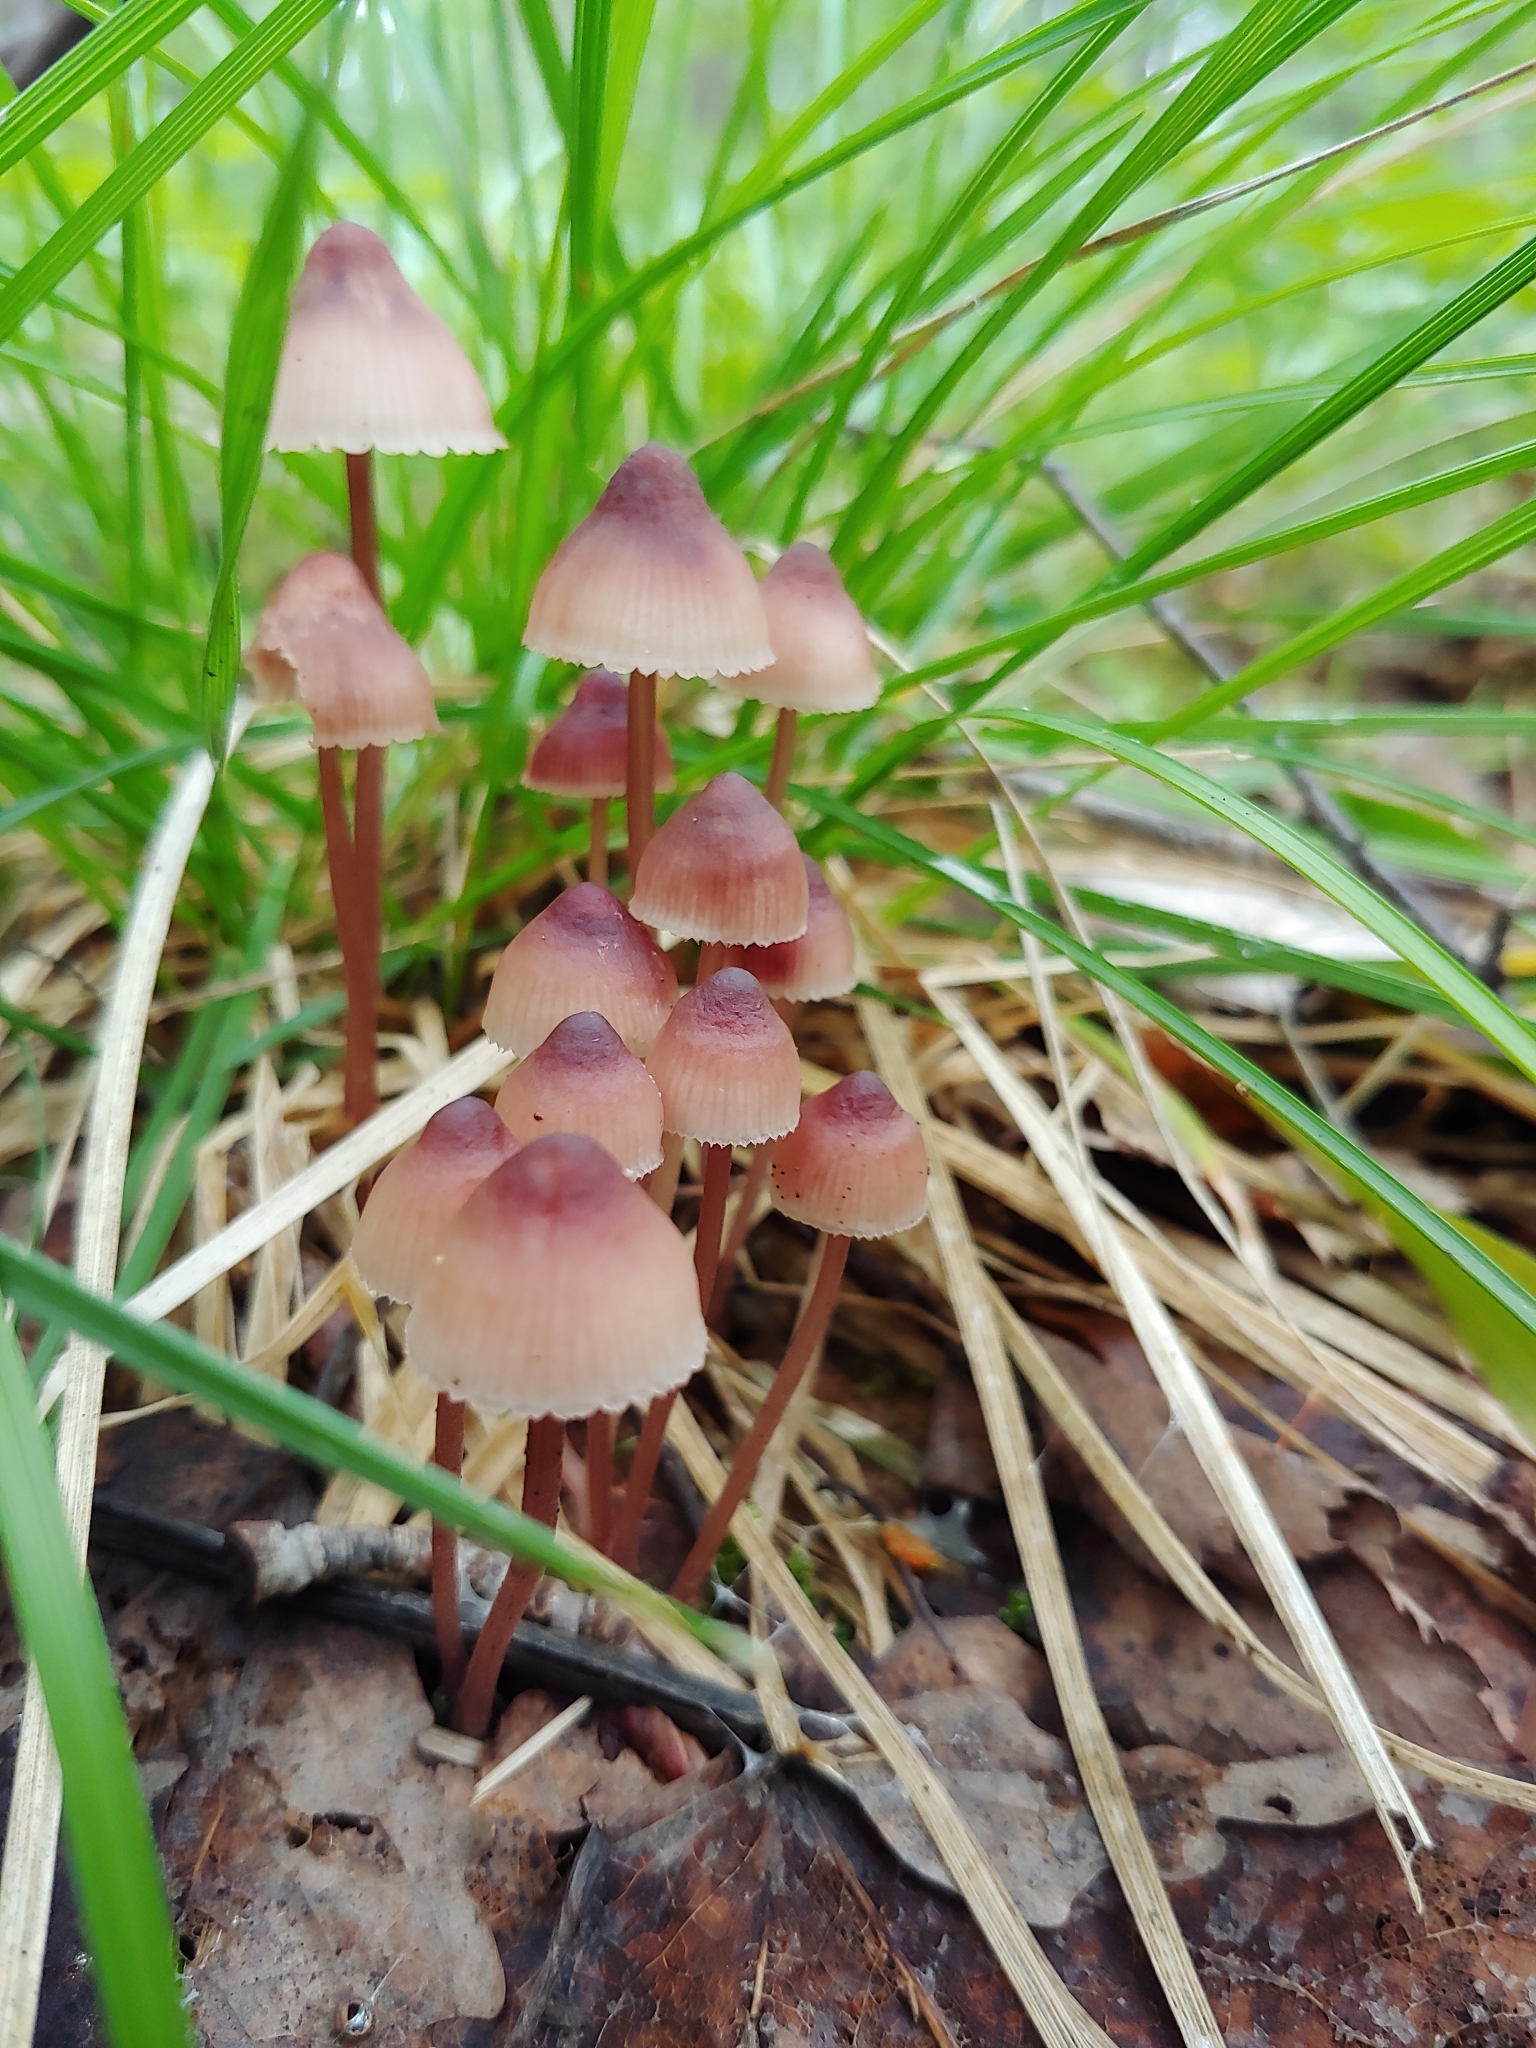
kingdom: Fungi
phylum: Basidiomycota
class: Agaricomycetes
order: Agaricales
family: Mycenaceae
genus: Mycena
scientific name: Mycena haematopus
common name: Burgundydrop bonnet
